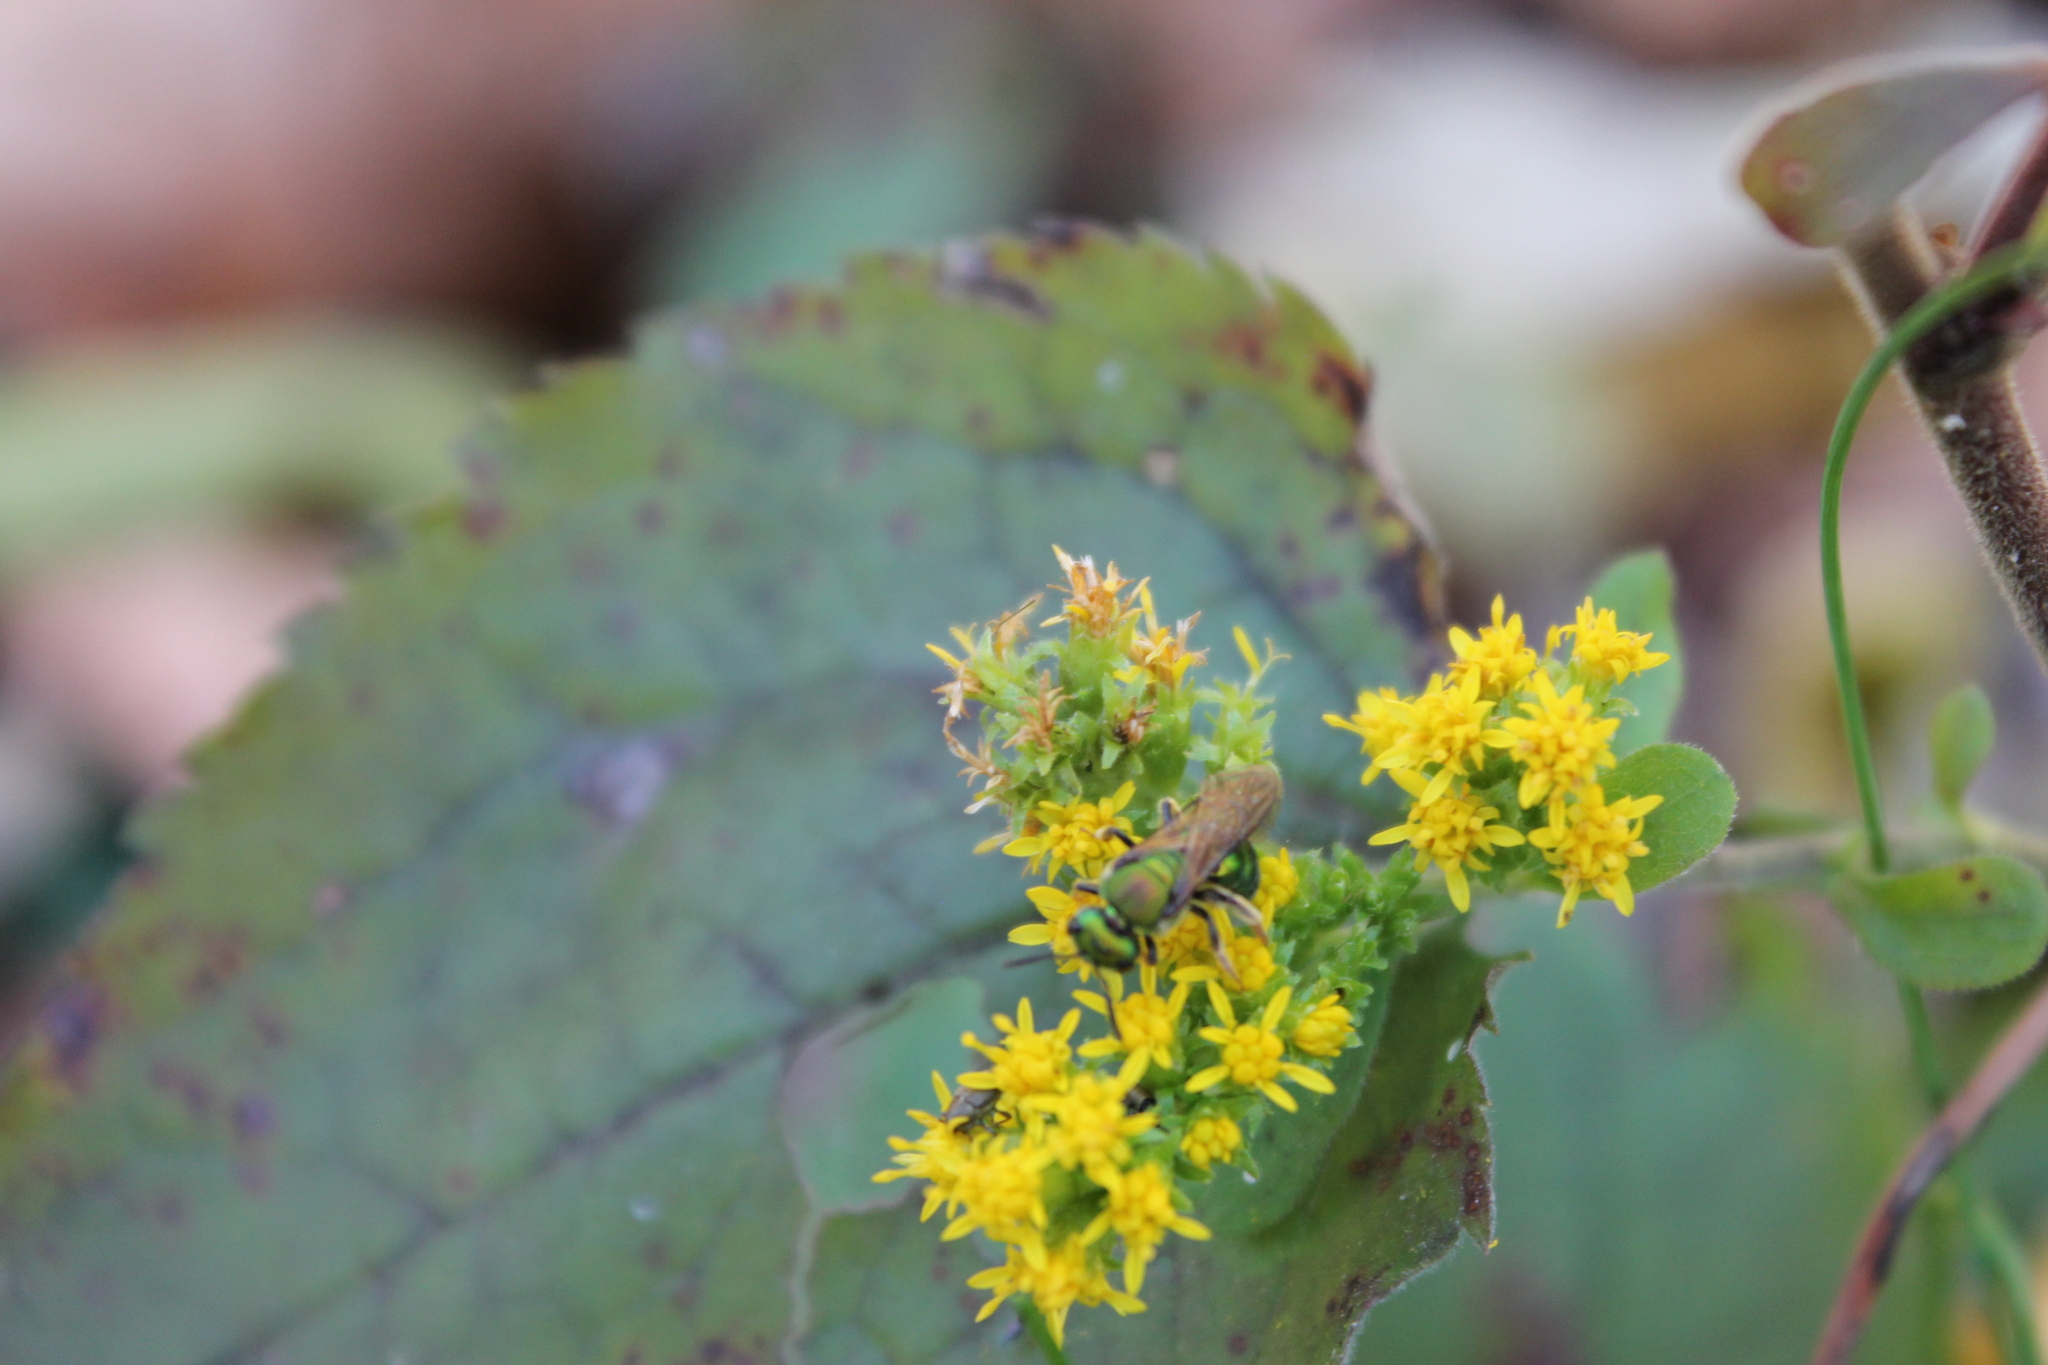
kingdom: Plantae
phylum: Tracheophyta
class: Magnoliopsida
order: Asterales
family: Asteraceae
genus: Solidago
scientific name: Solidago sphacelata
